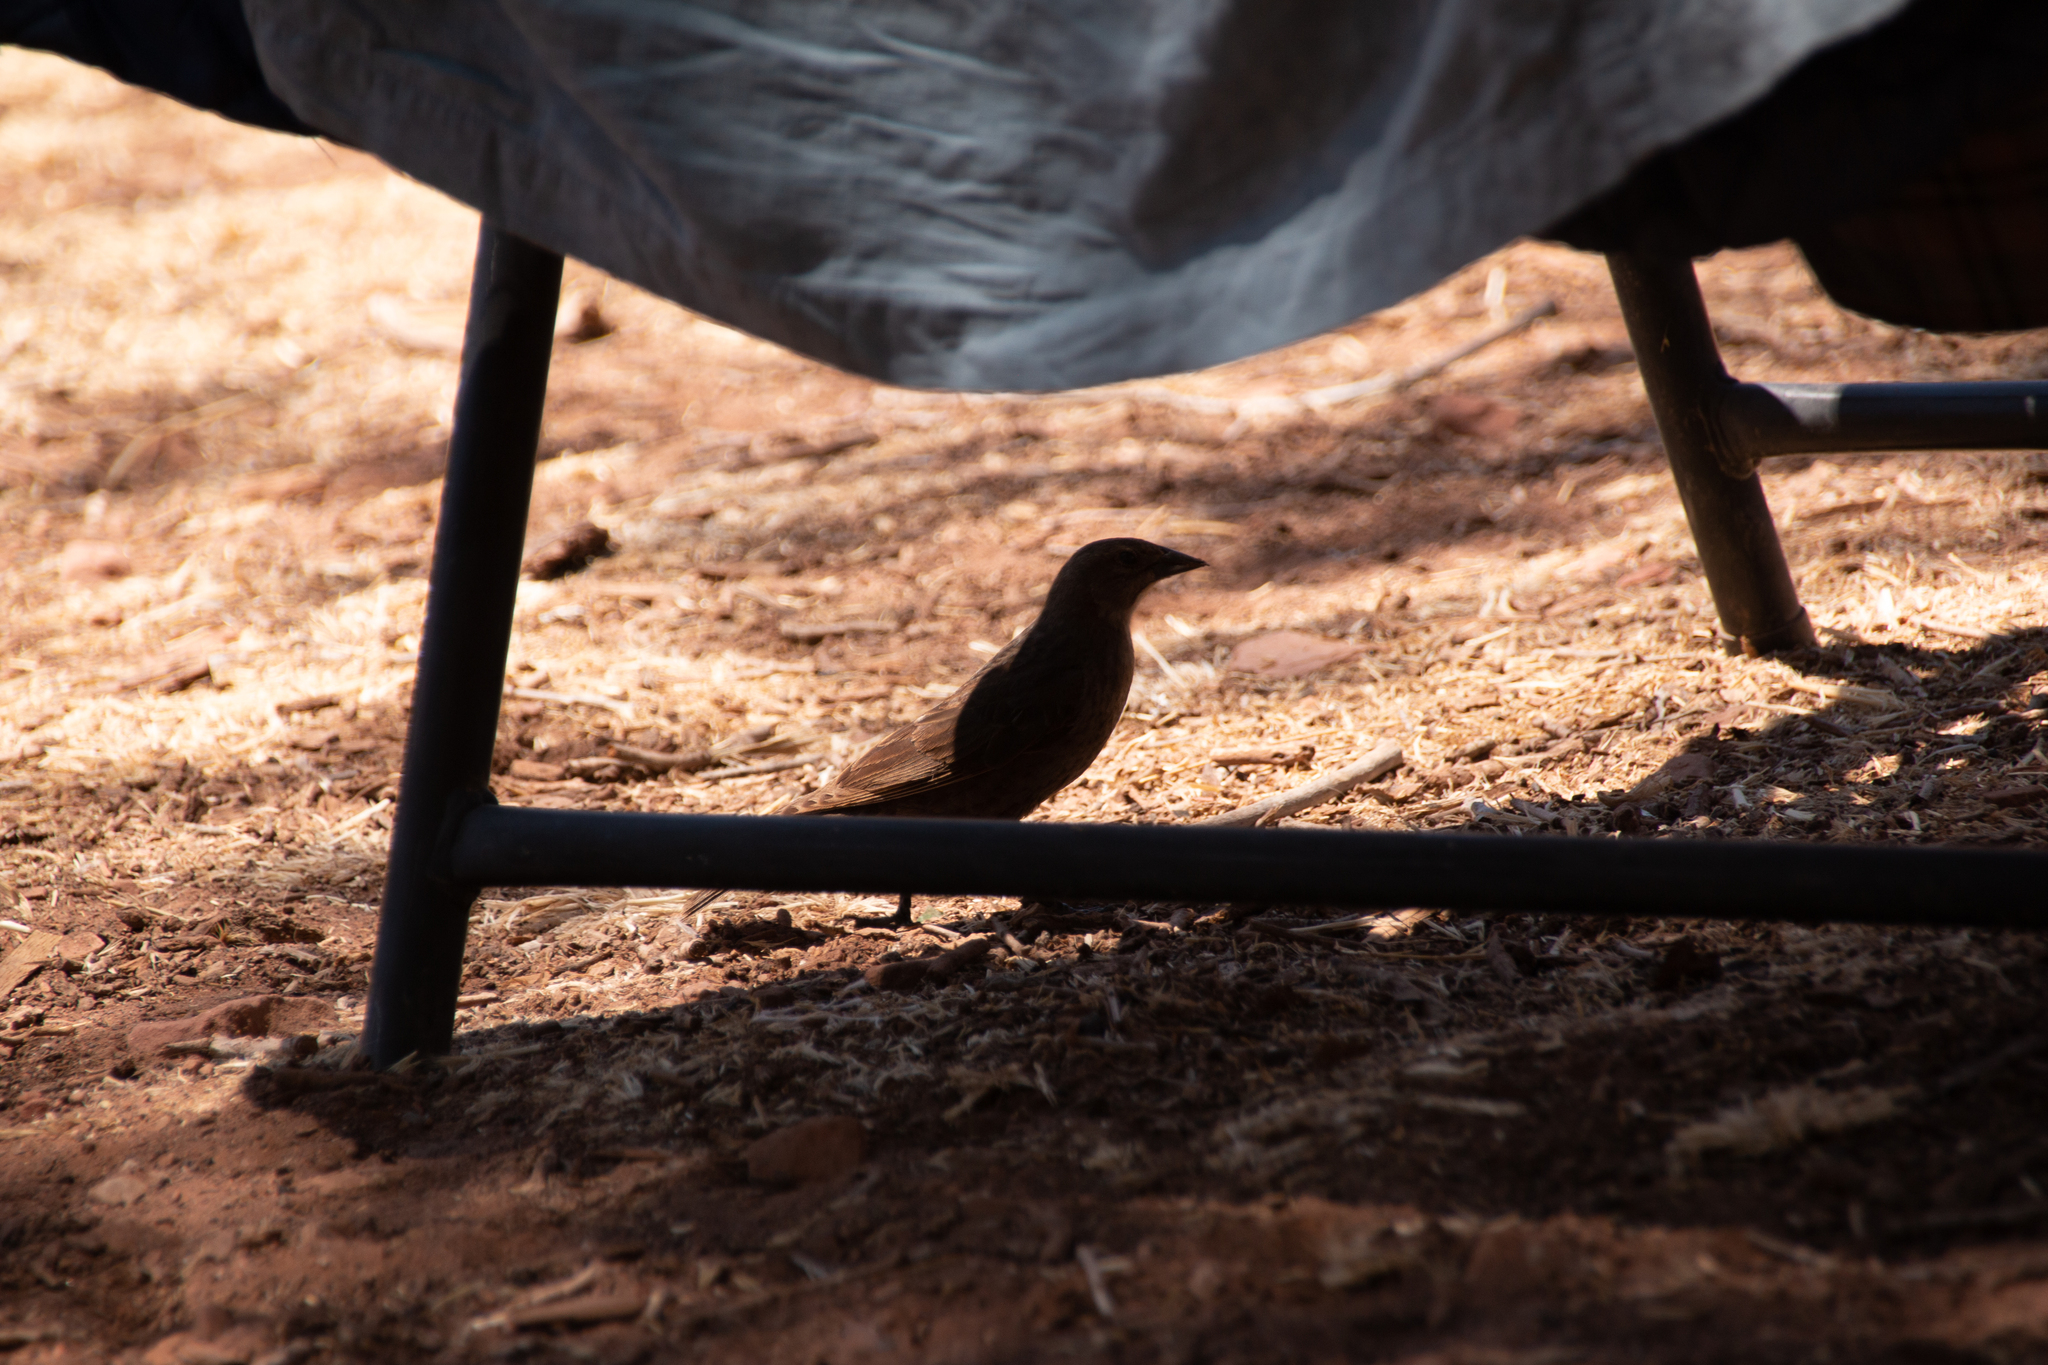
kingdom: Animalia
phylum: Chordata
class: Aves
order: Passeriformes
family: Icteridae
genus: Molothrus
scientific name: Molothrus ater
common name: Brown-headed cowbird
